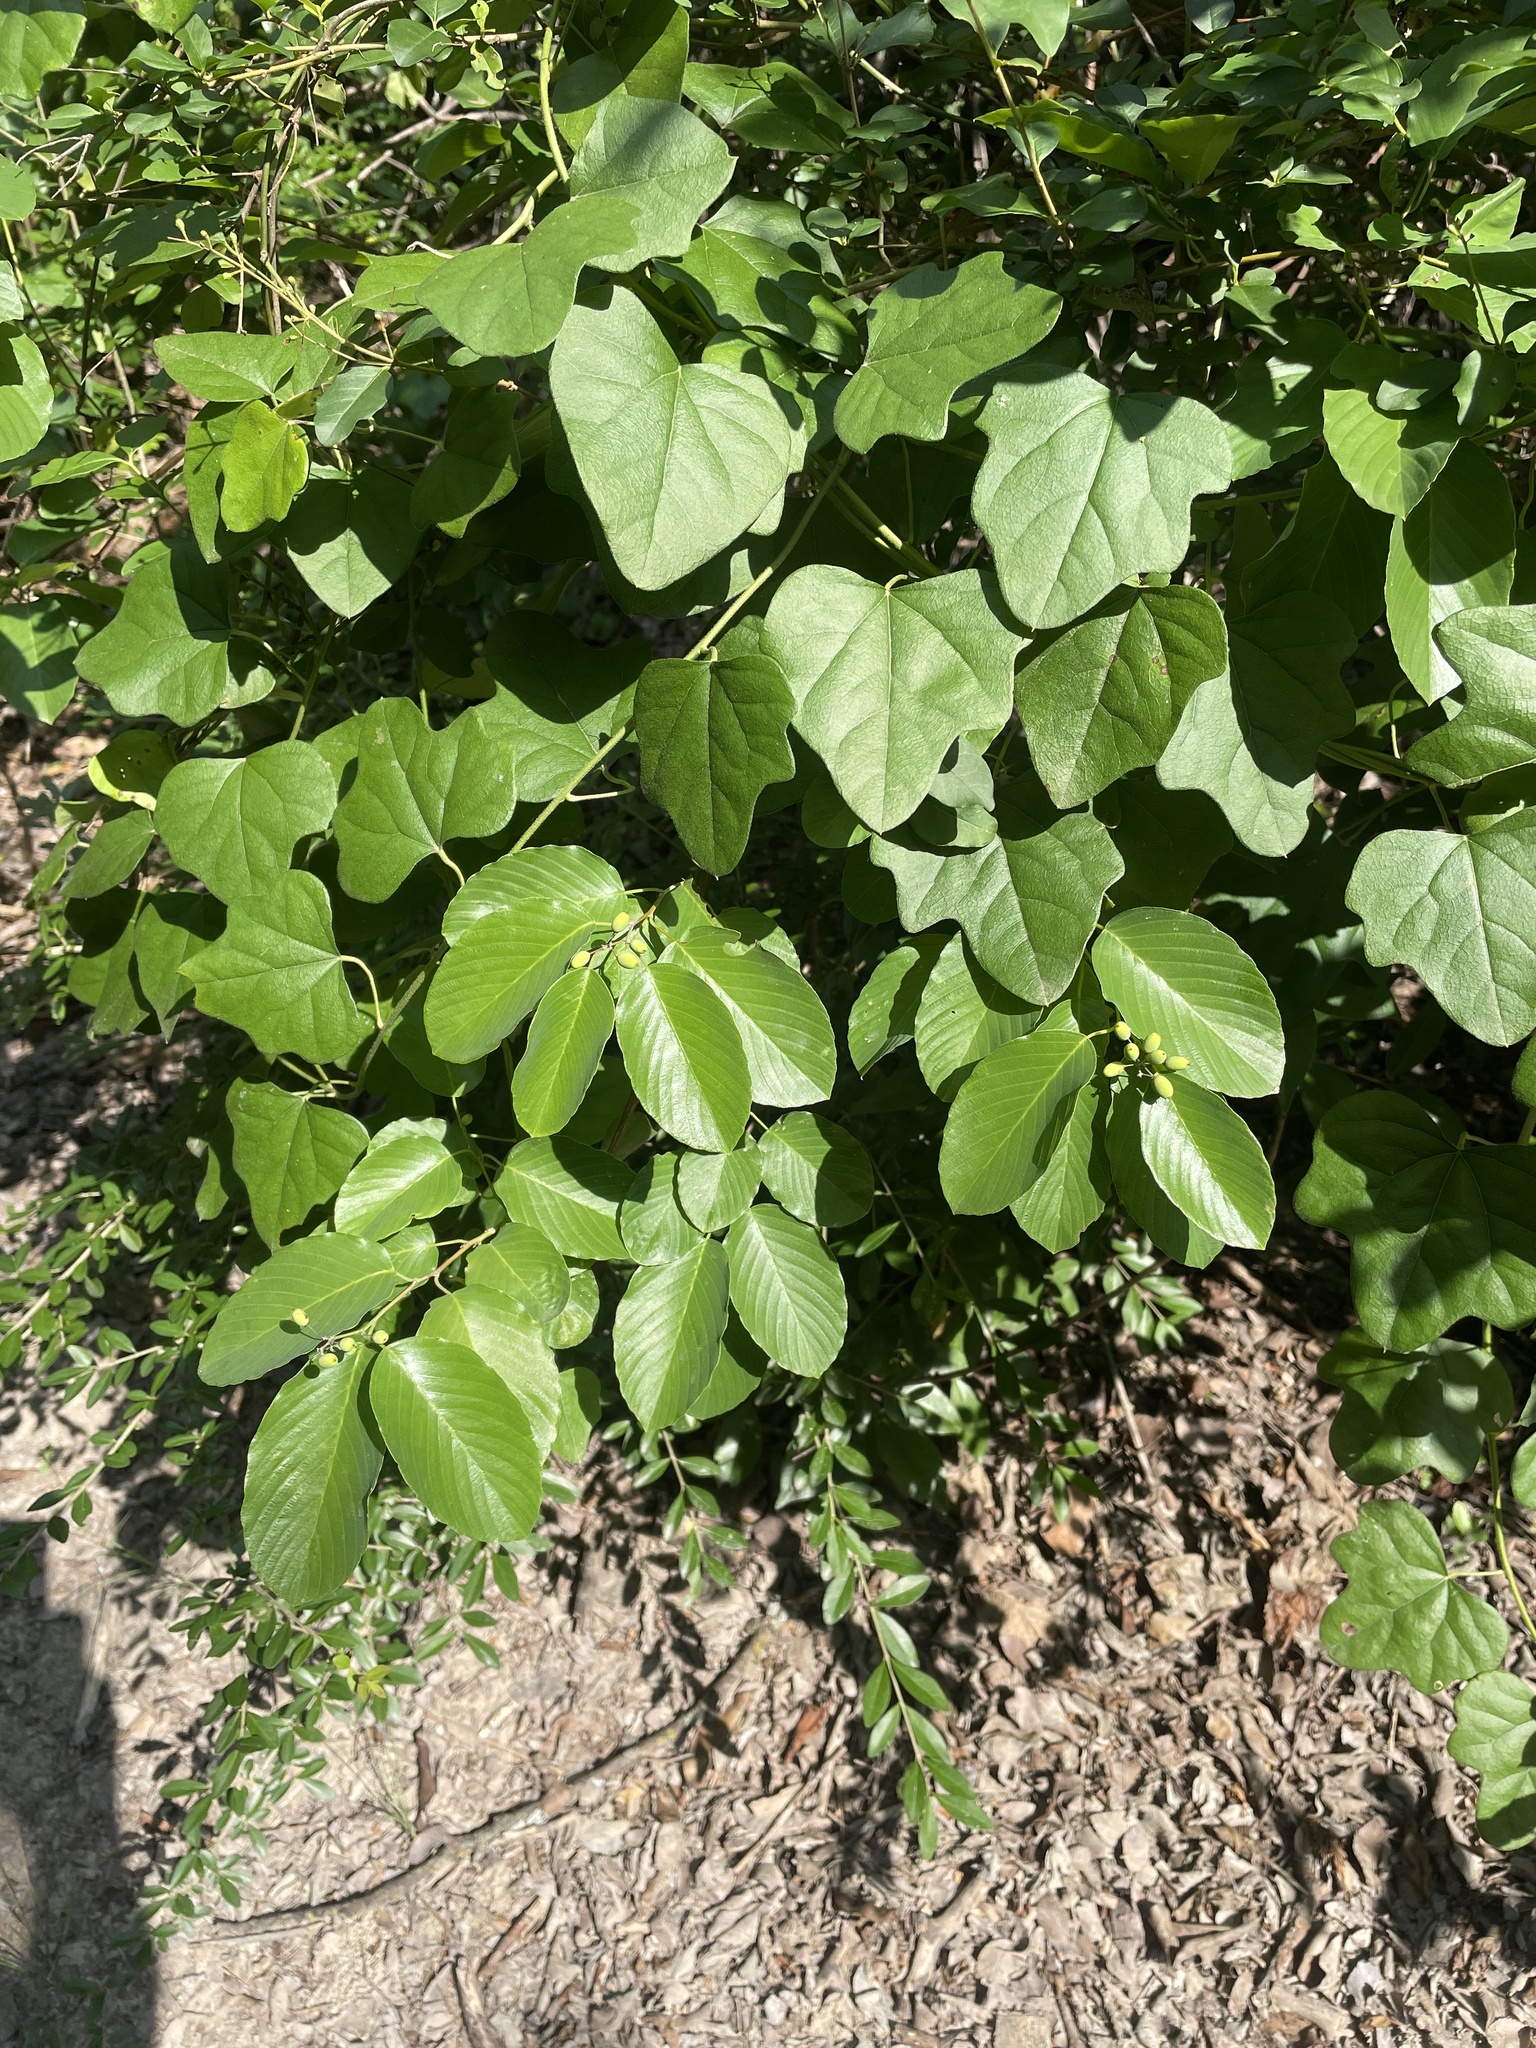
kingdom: Plantae
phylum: Tracheophyta
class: Magnoliopsida
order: Rosales
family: Rhamnaceae
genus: Berchemia
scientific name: Berchemia scandens
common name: Supplejack
